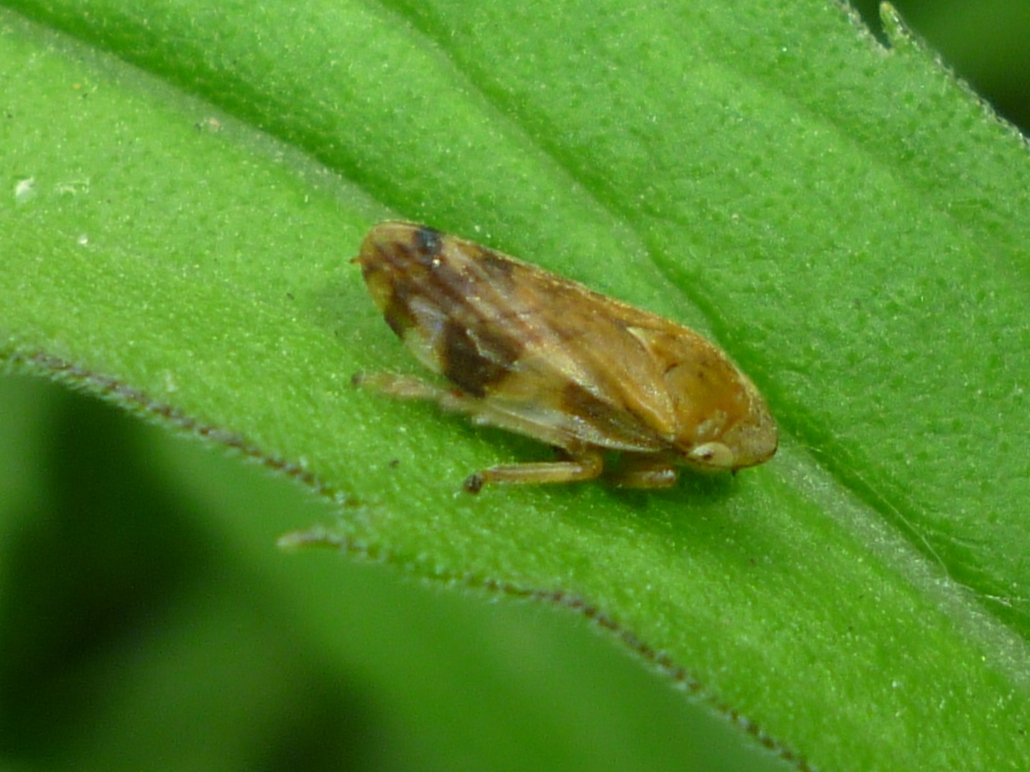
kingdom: Animalia
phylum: Arthropoda
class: Insecta
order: Hemiptera
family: Aphrophoridae
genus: Philaenus
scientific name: Philaenus spumarius
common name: Meadow spittlebug
